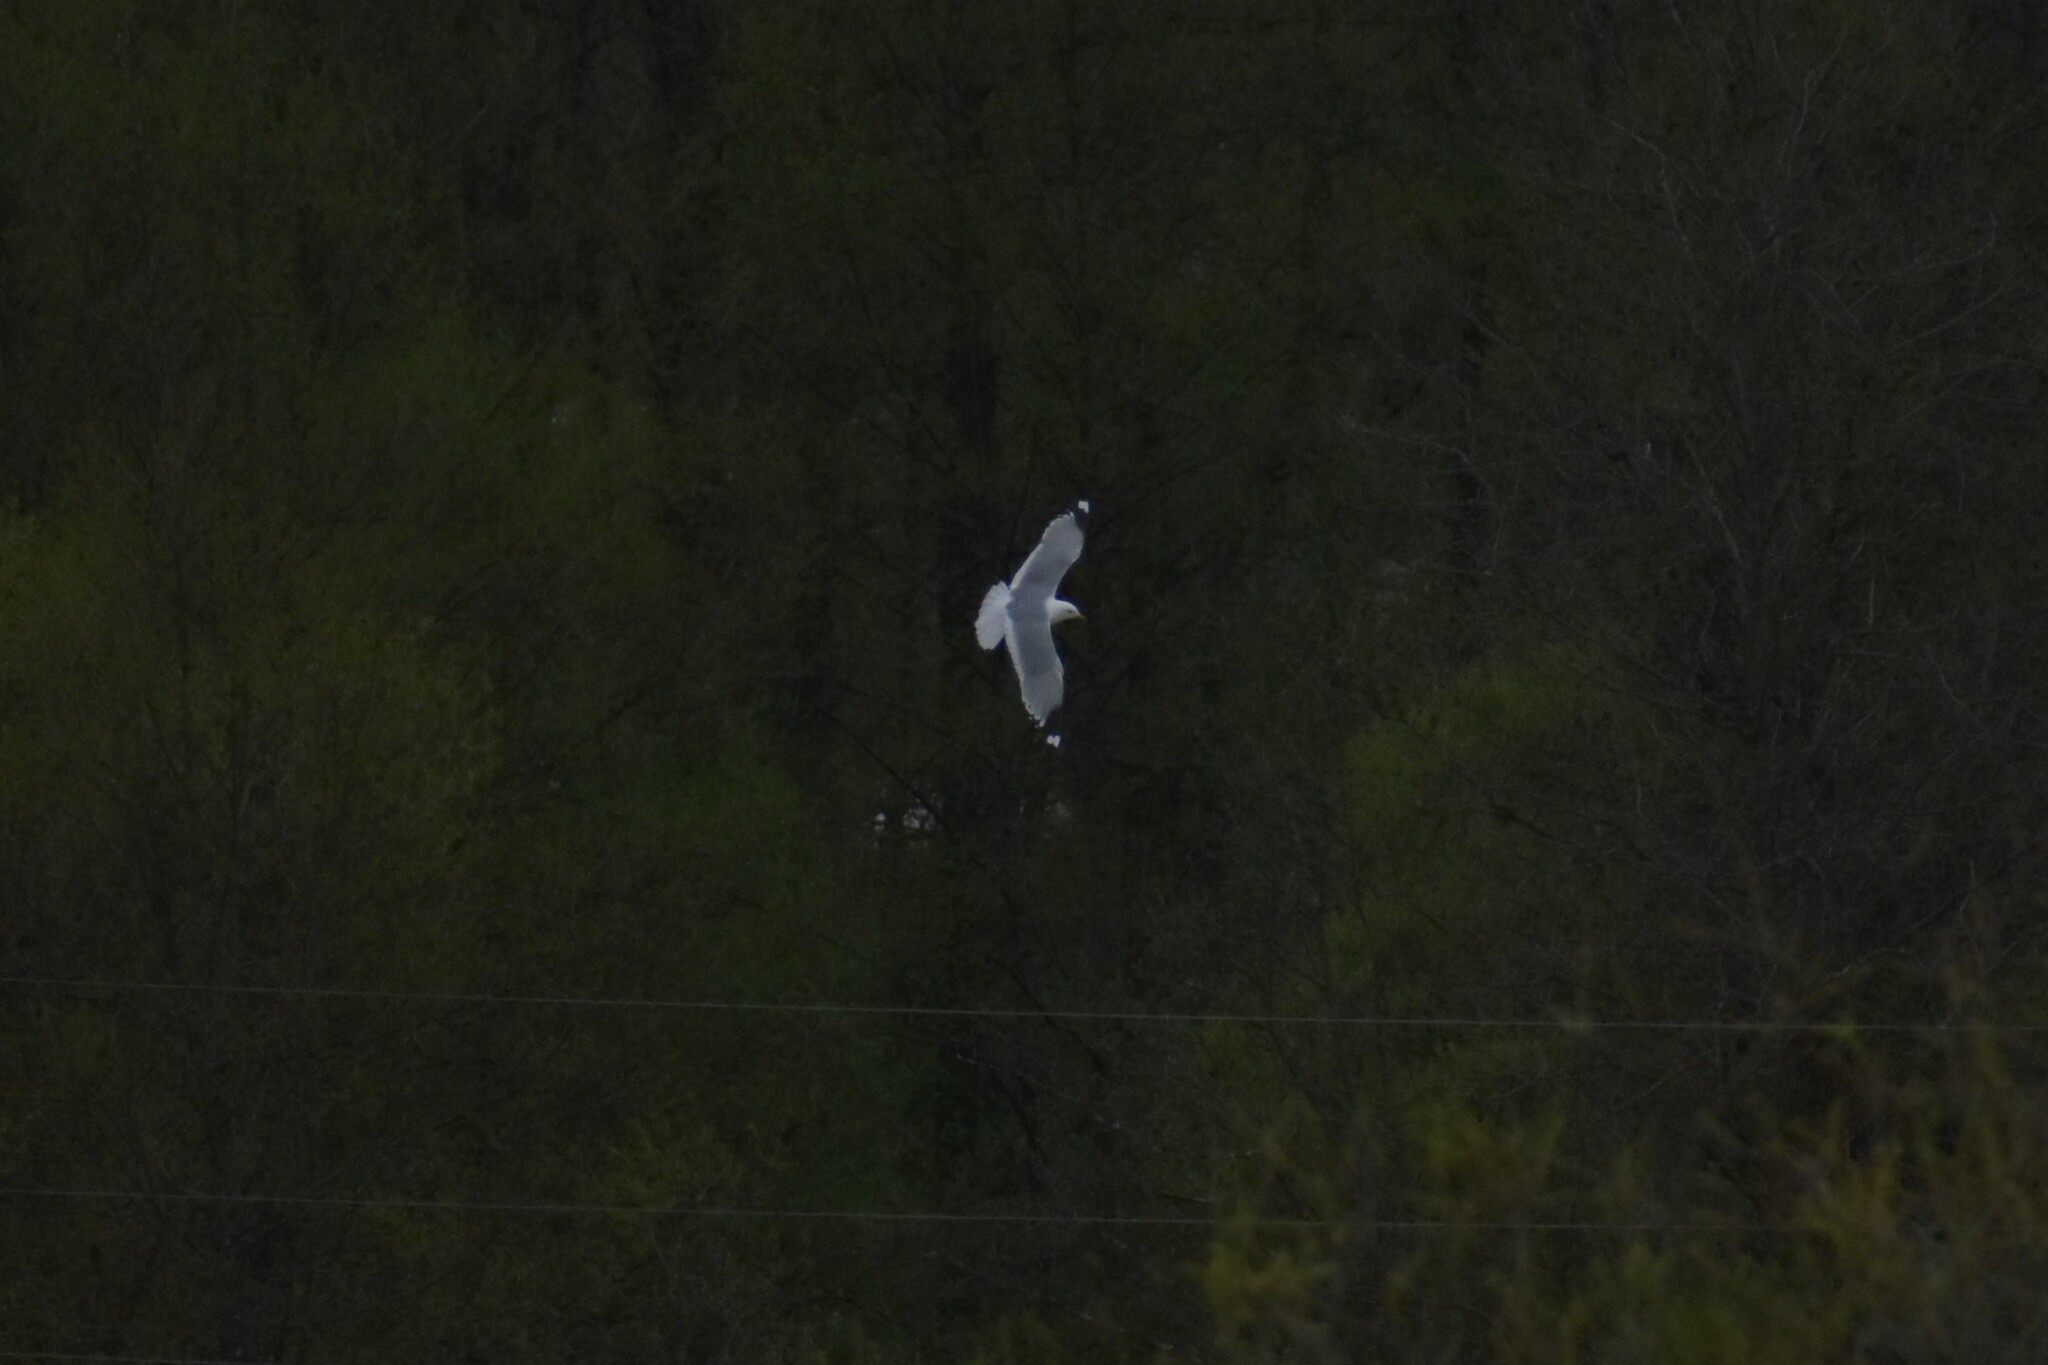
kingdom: Animalia
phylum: Chordata
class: Aves
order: Charadriiformes
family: Laridae
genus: Larus
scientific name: Larus canus
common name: Mew gull
